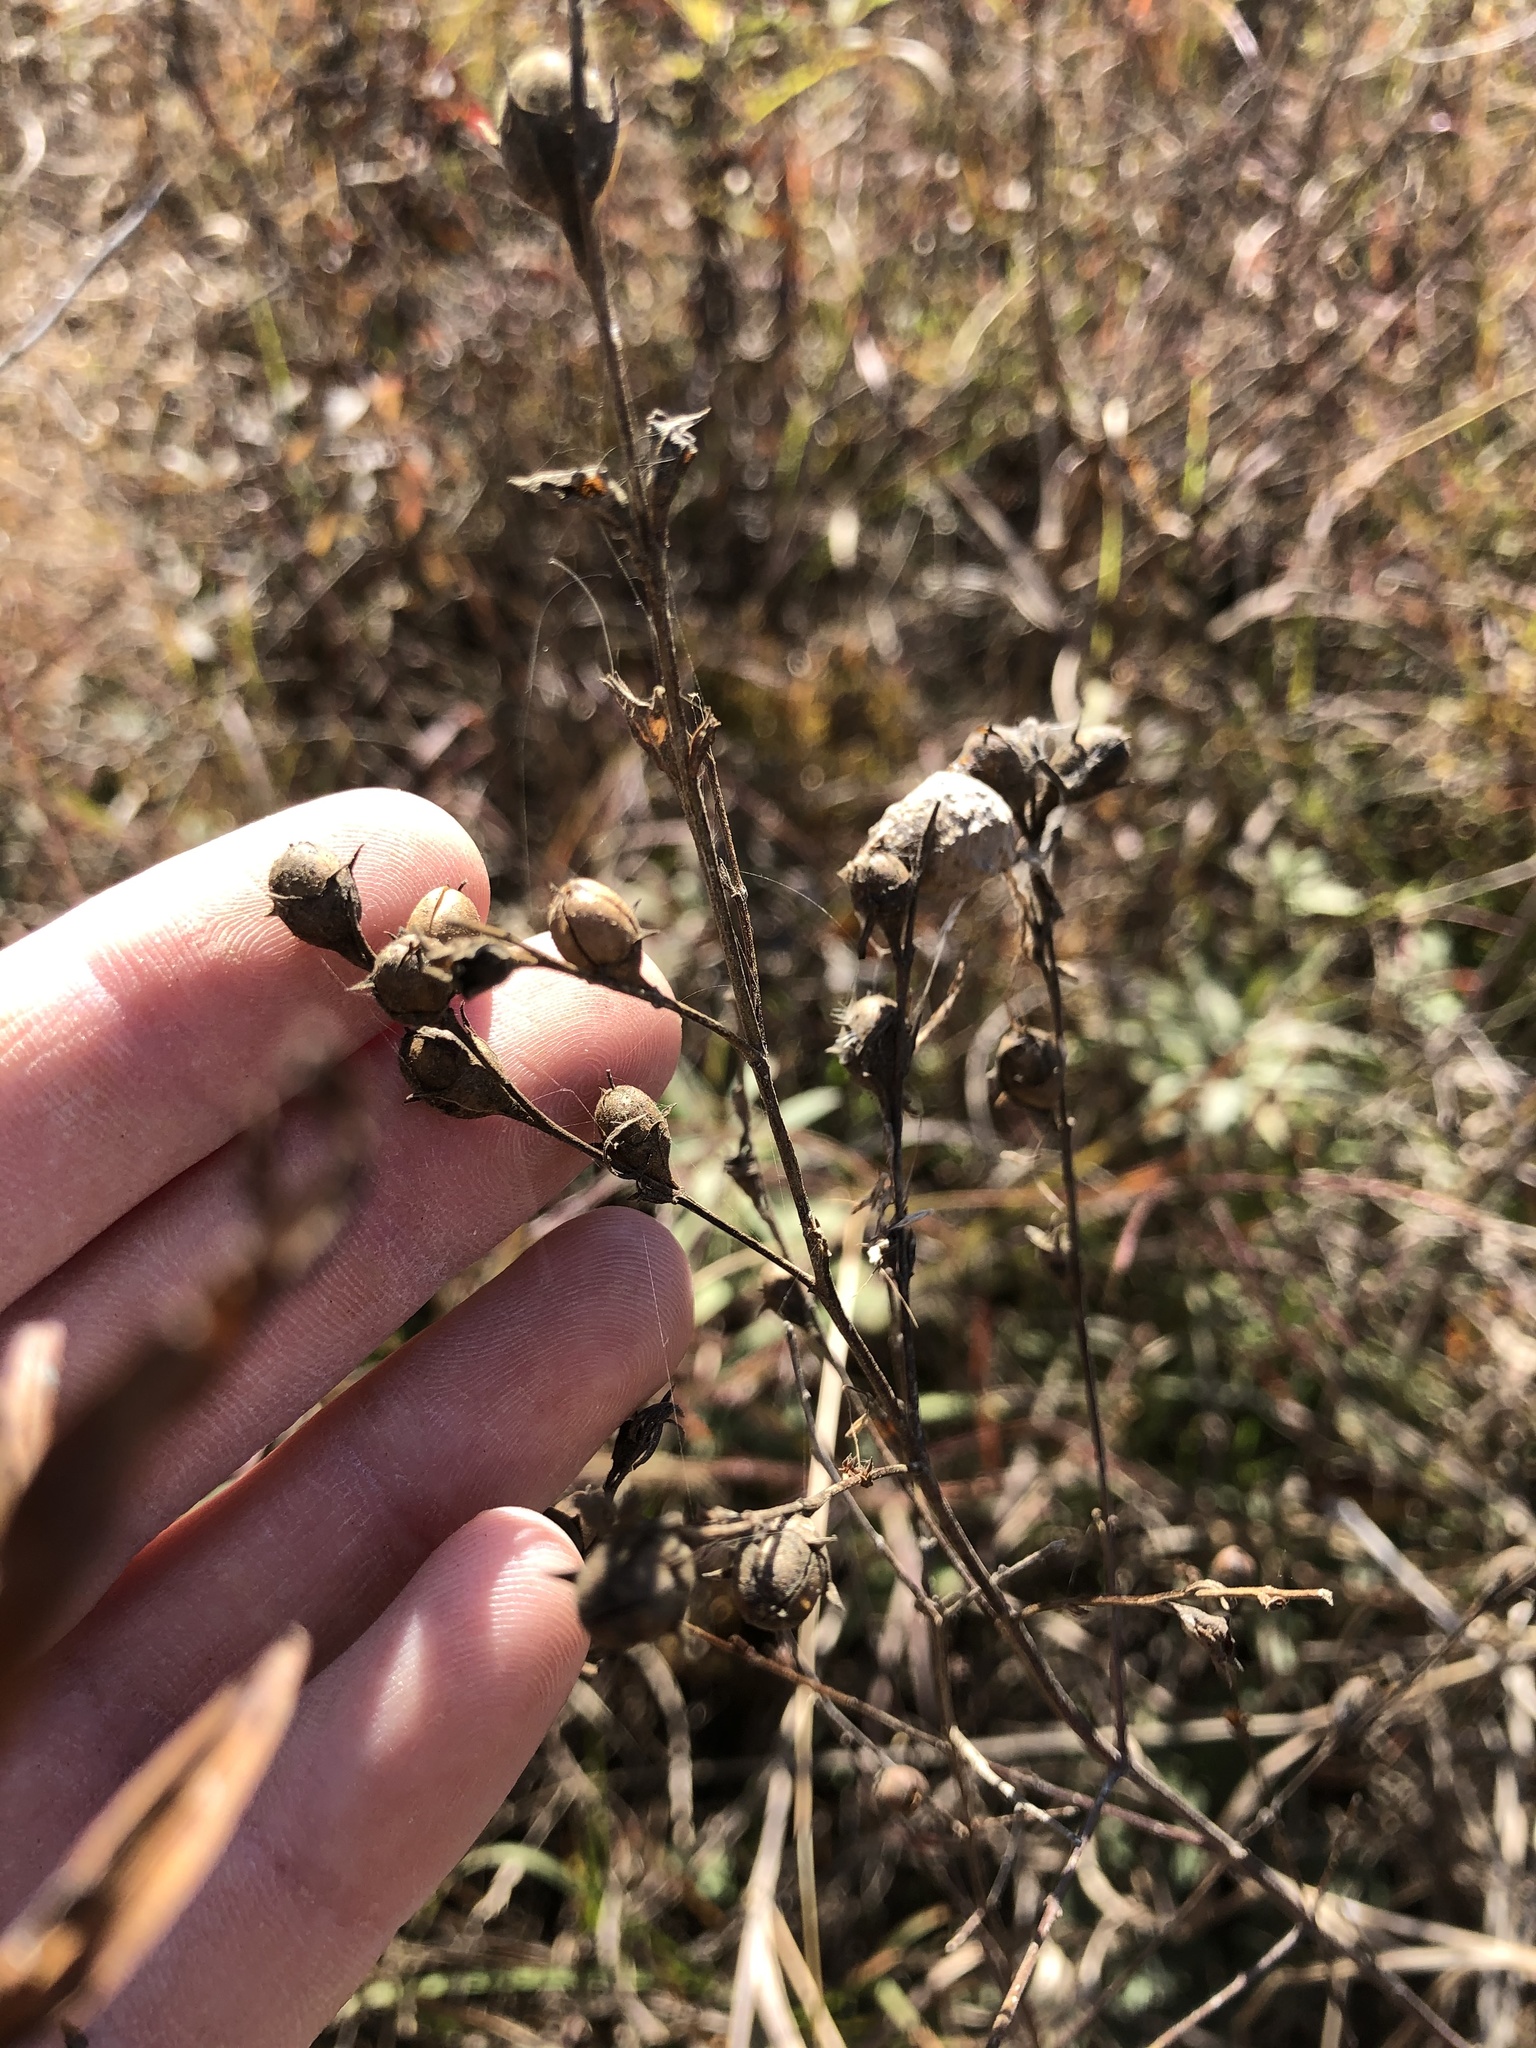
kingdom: Plantae
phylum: Tracheophyta
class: Magnoliopsida
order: Lamiales
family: Orobanchaceae
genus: Agalinis
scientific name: Agalinis heterophylla
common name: Prairie agalinis
